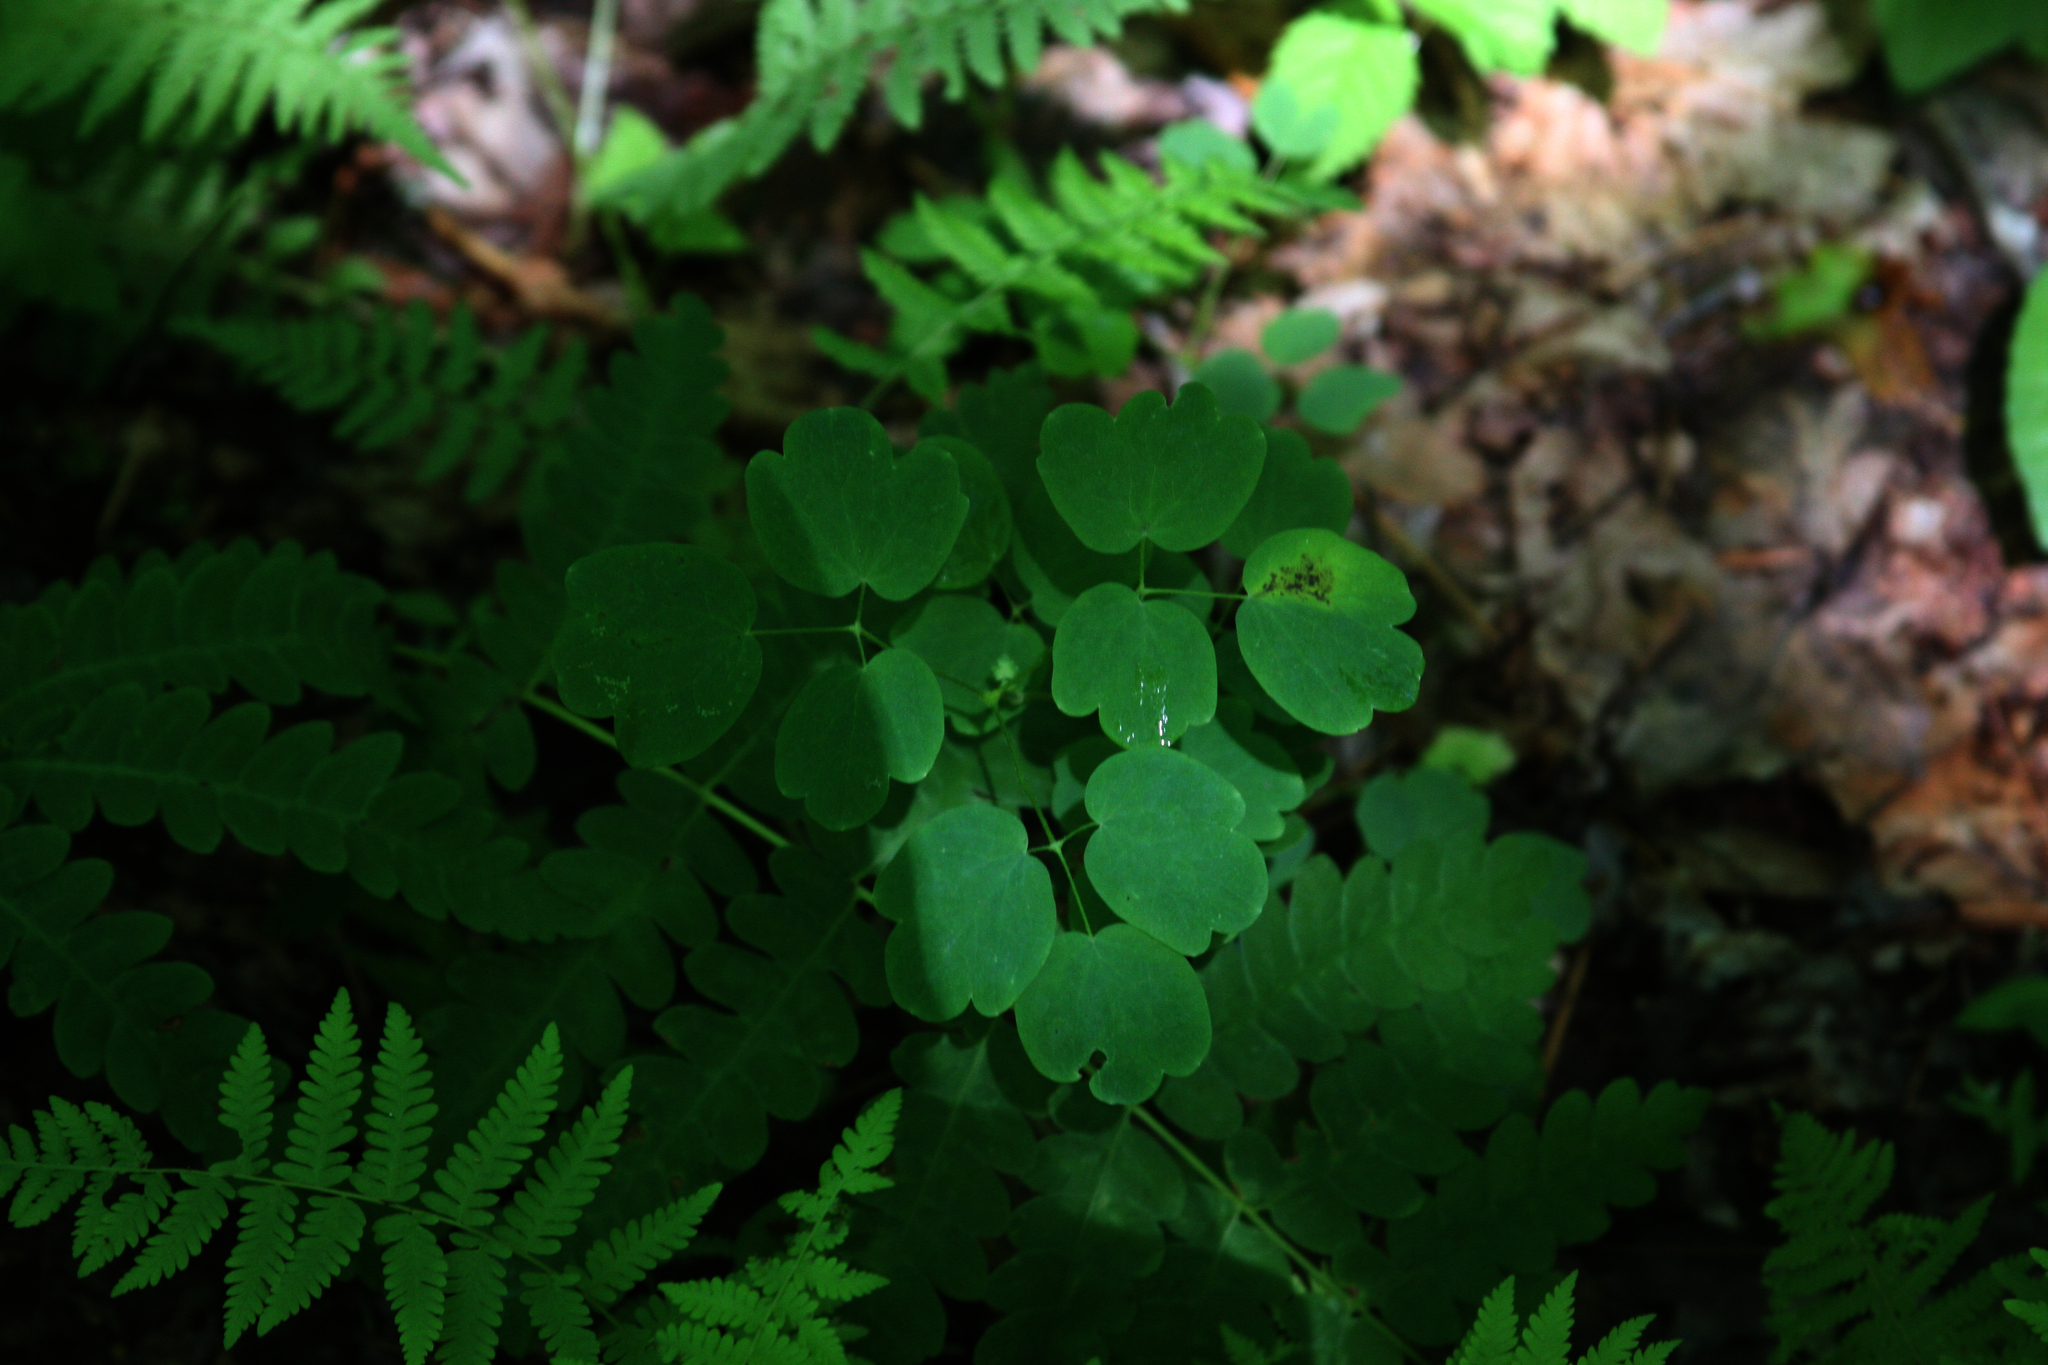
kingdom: Plantae
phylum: Tracheophyta
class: Magnoliopsida
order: Ranunculales
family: Ranunculaceae
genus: Thalictrum
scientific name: Thalictrum pubescens
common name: King-of-the-meadow
